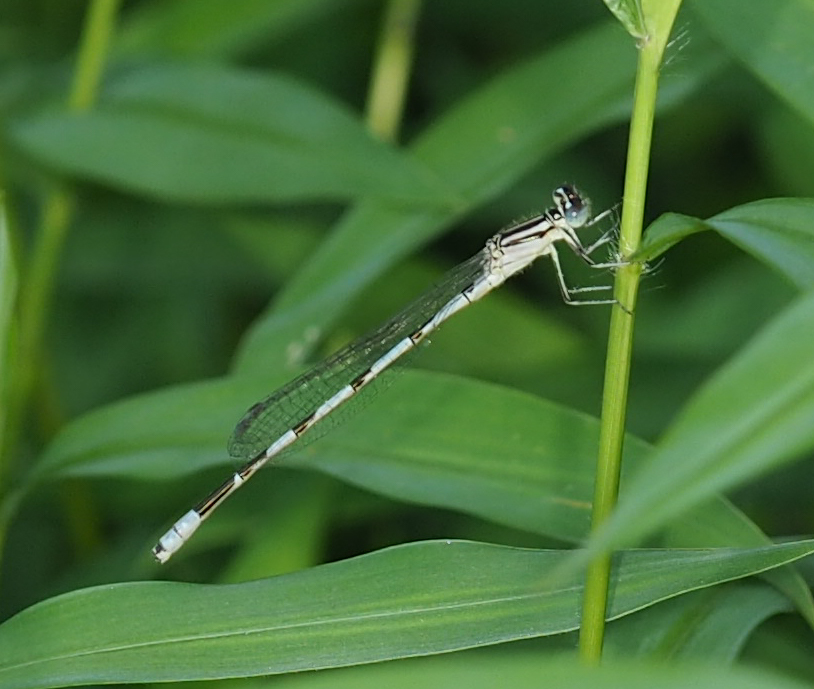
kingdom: Animalia
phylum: Arthropoda
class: Insecta
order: Odonata
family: Coenagrionidae
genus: Enallagma
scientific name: Enallagma durum
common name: Big bluet
